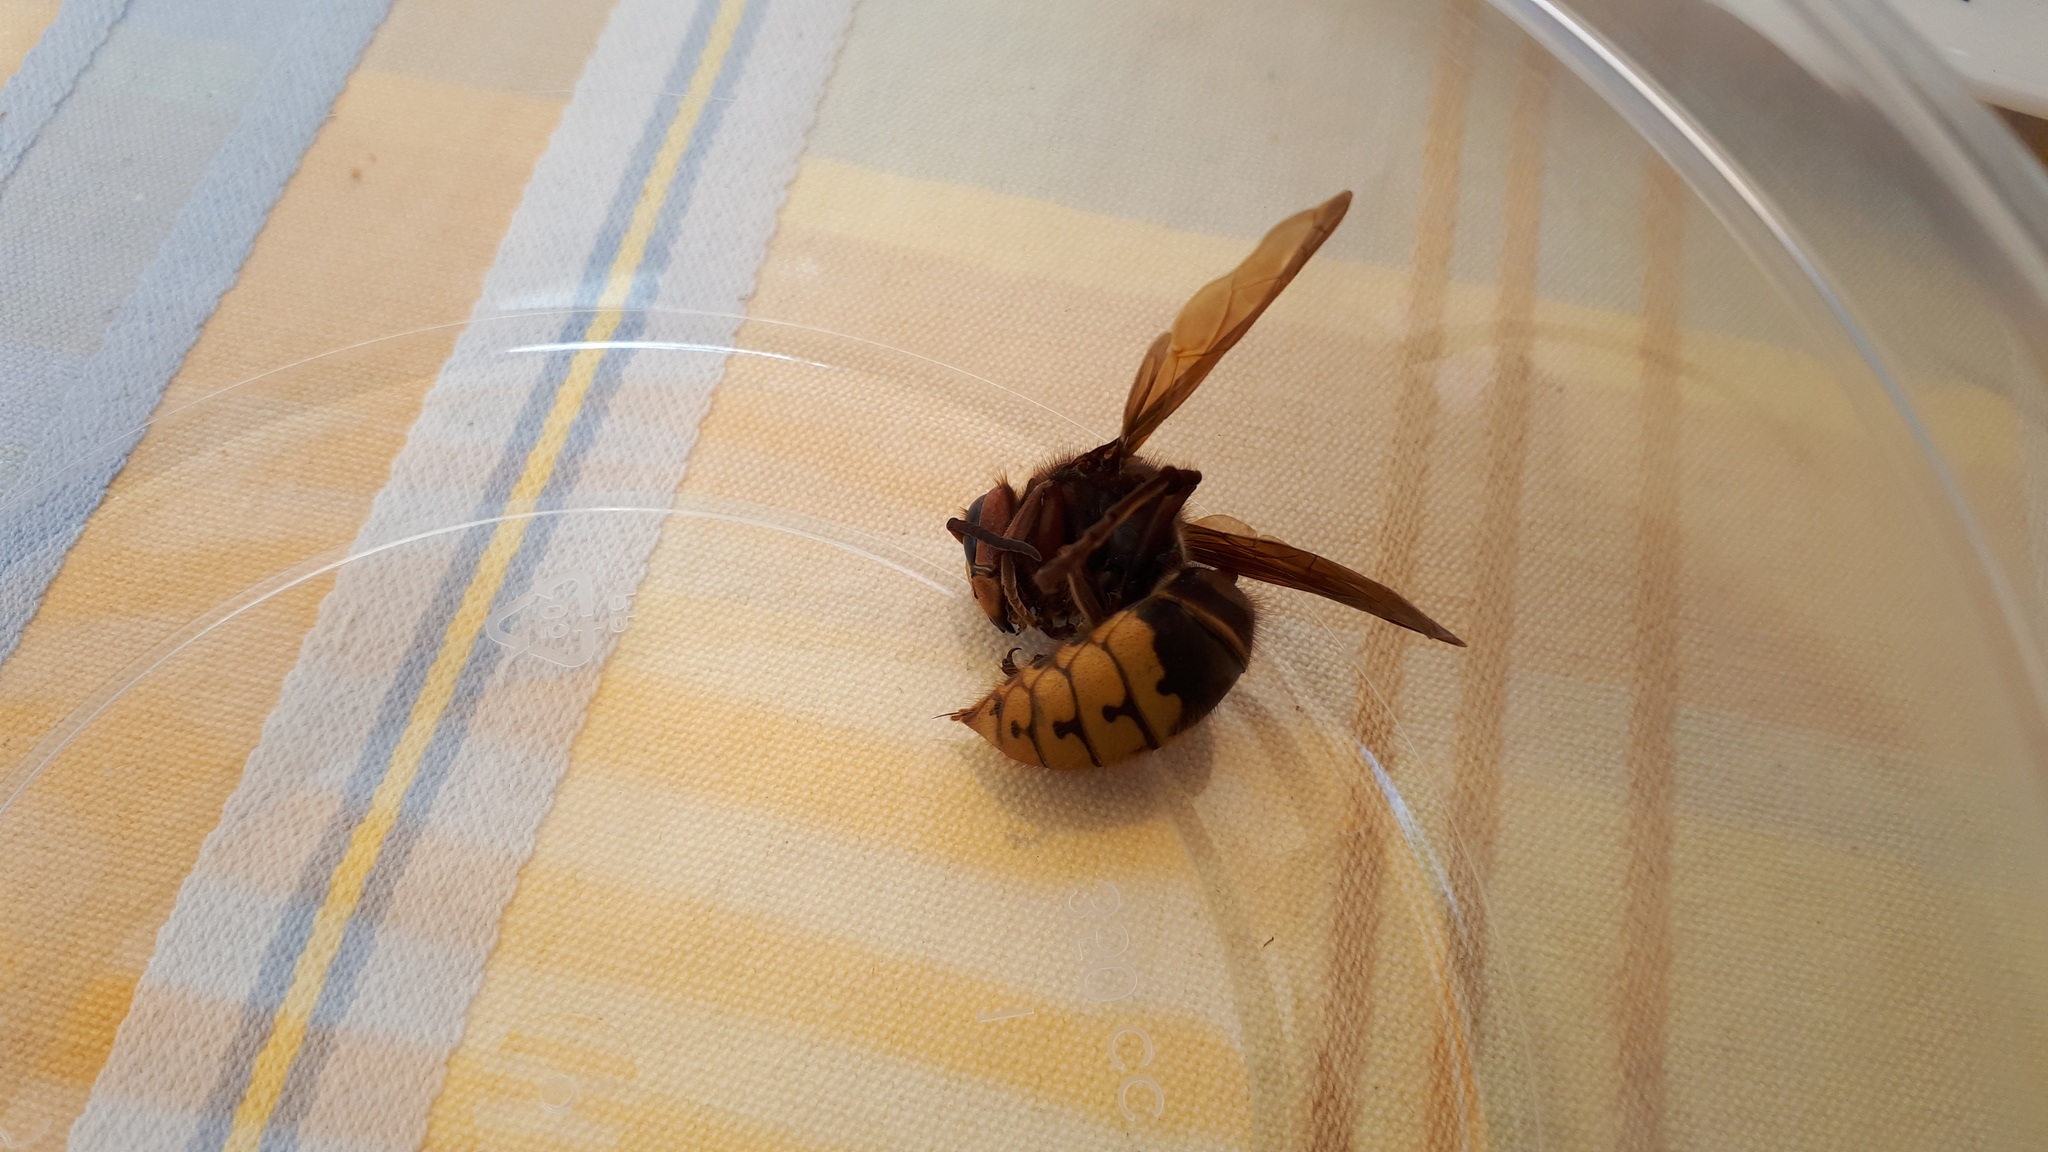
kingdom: Animalia
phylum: Arthropoda
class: Insecta
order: Hymenoptera
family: Vespidae
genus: Vespa
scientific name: Vespa crabro
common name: Hornet
